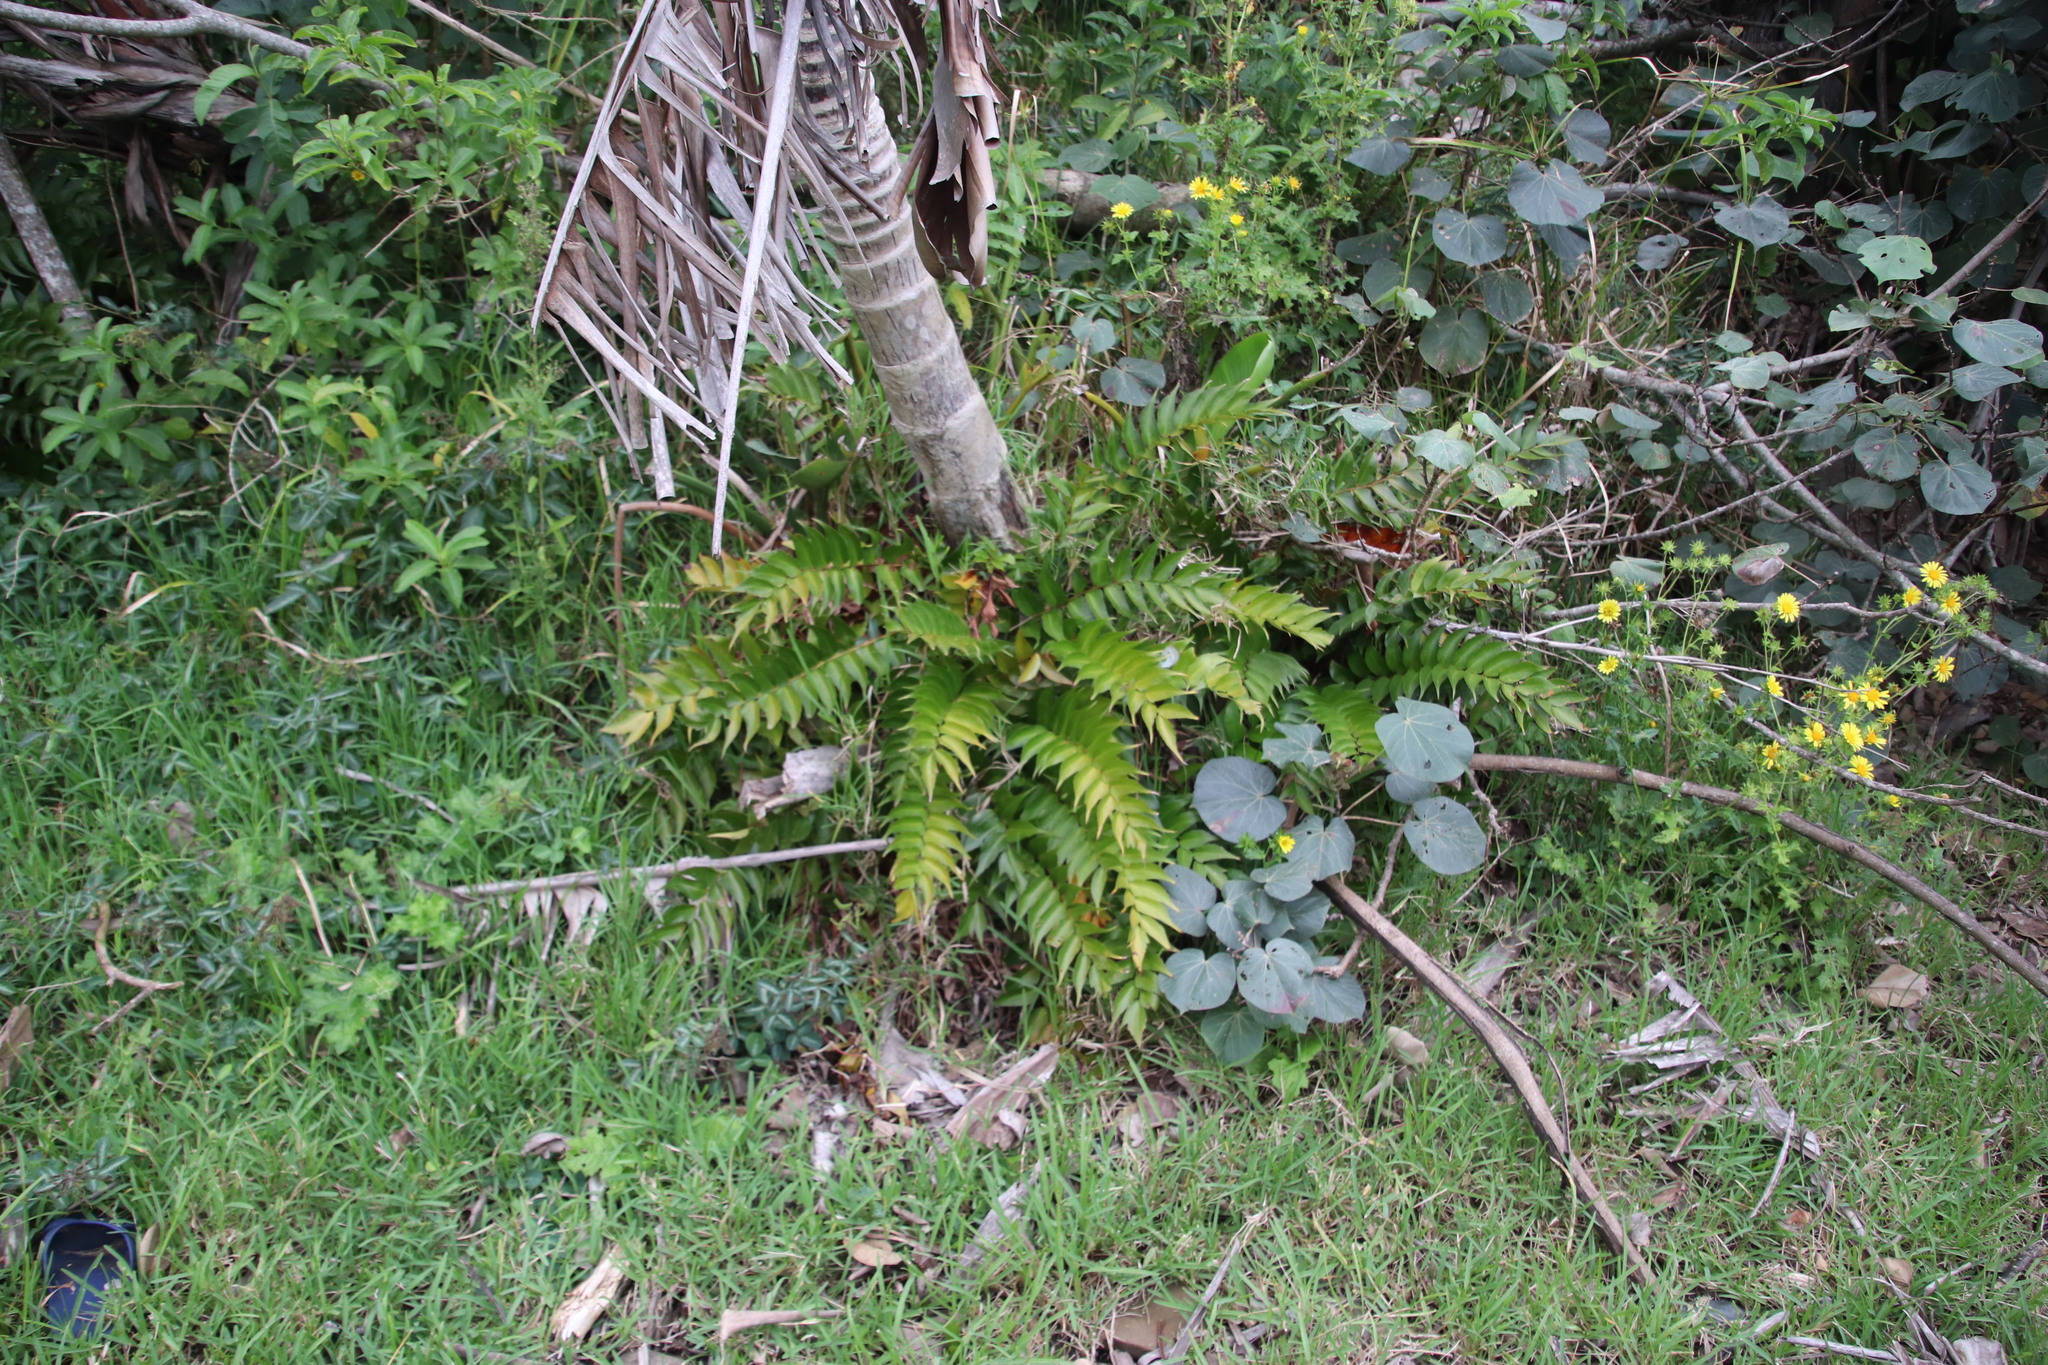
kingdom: Plantae
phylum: Tracheophyta
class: Polypodiopsida
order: Polypodiales
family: Dryopteridaceae
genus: Cyrtomium
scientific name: Cyrtomium falcatum
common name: House holly-fern
